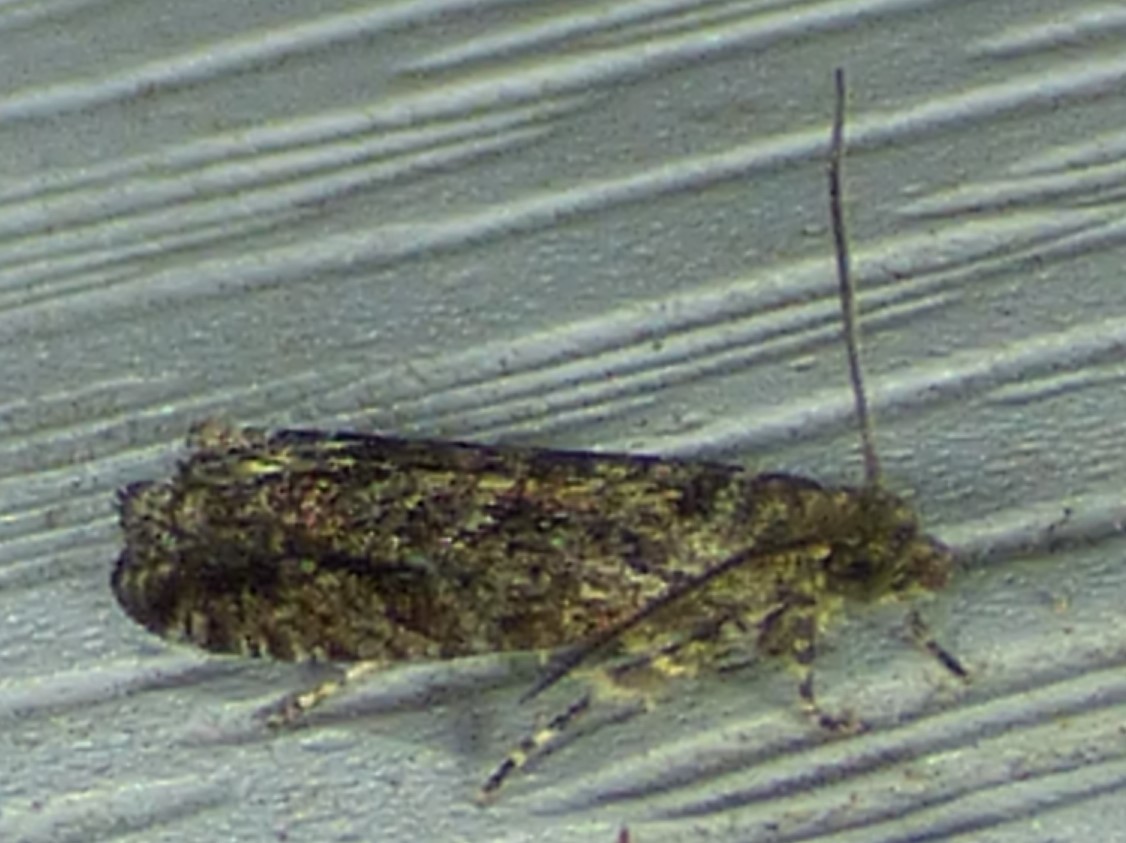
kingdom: Animalia
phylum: Arthropoda
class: Insecta
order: Lepidoptera
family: Tortricidae
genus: Chimoptesis
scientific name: Chimoptesis gerulae
